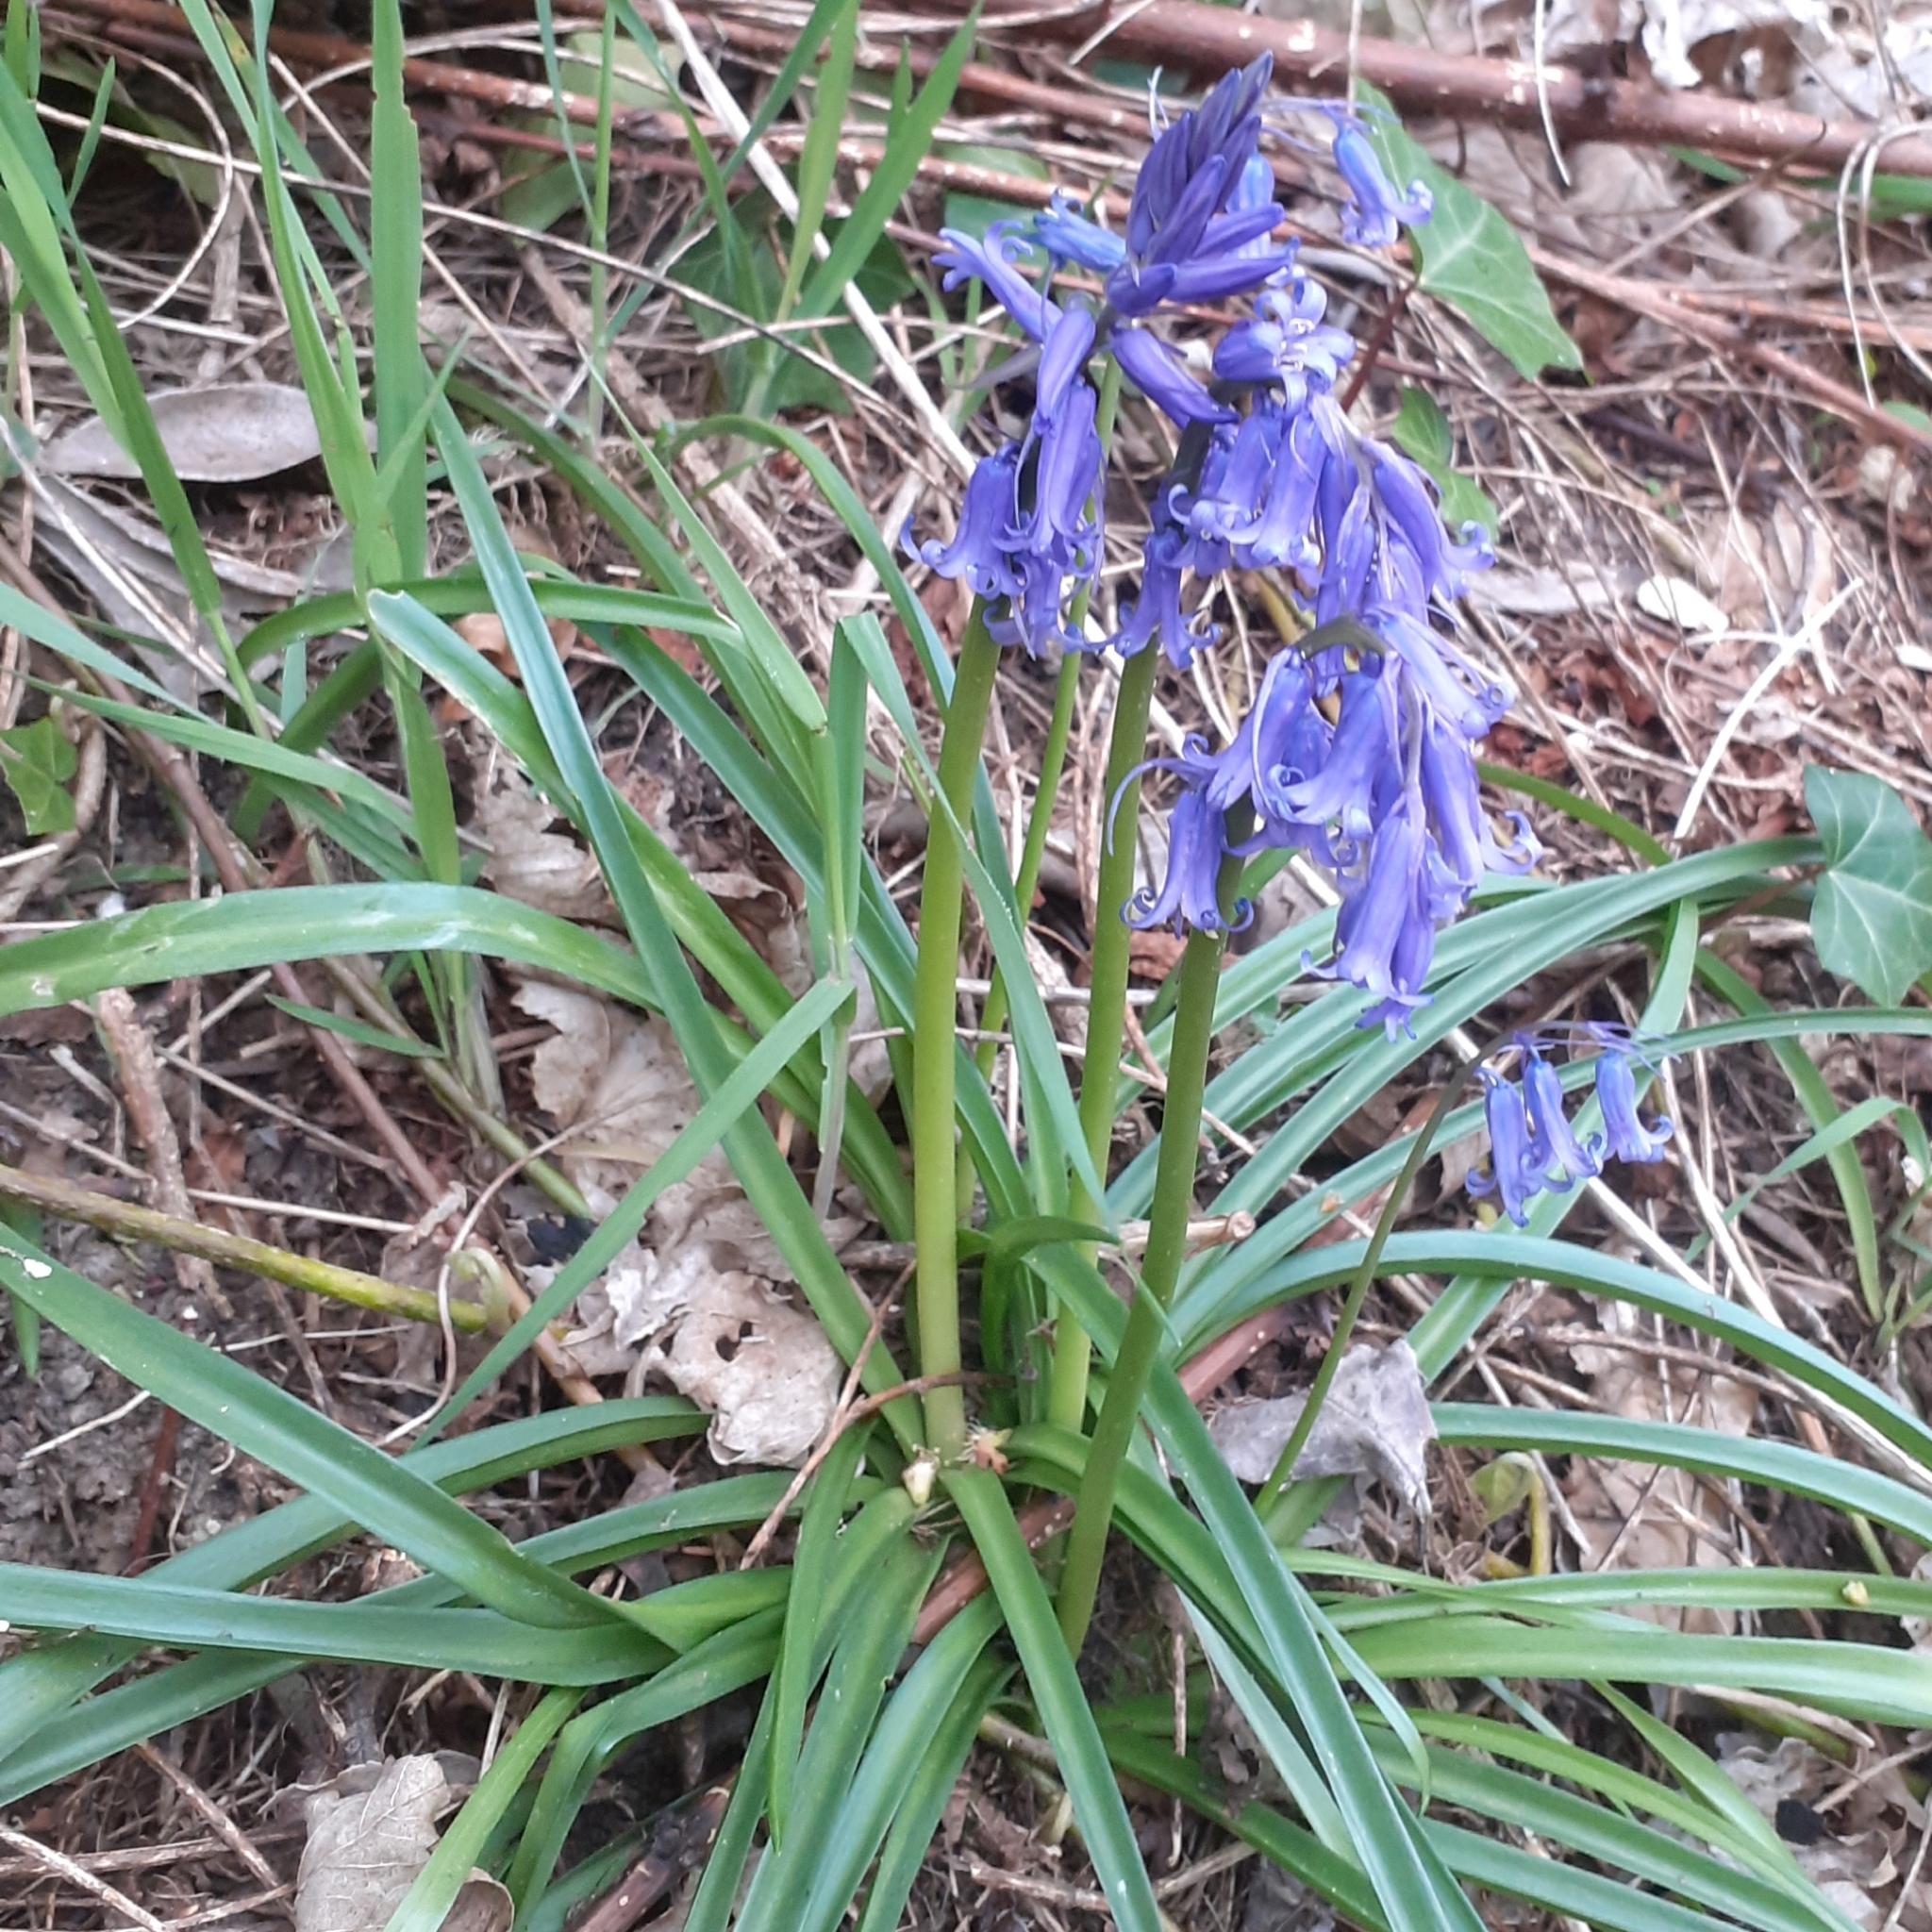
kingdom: Plantae
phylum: Tracheophyta
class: Liliopsida
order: Asparagales
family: Asparagaceae
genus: Hyacinthoides
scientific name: Hyacinthoides non-scripta
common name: Bluebell
